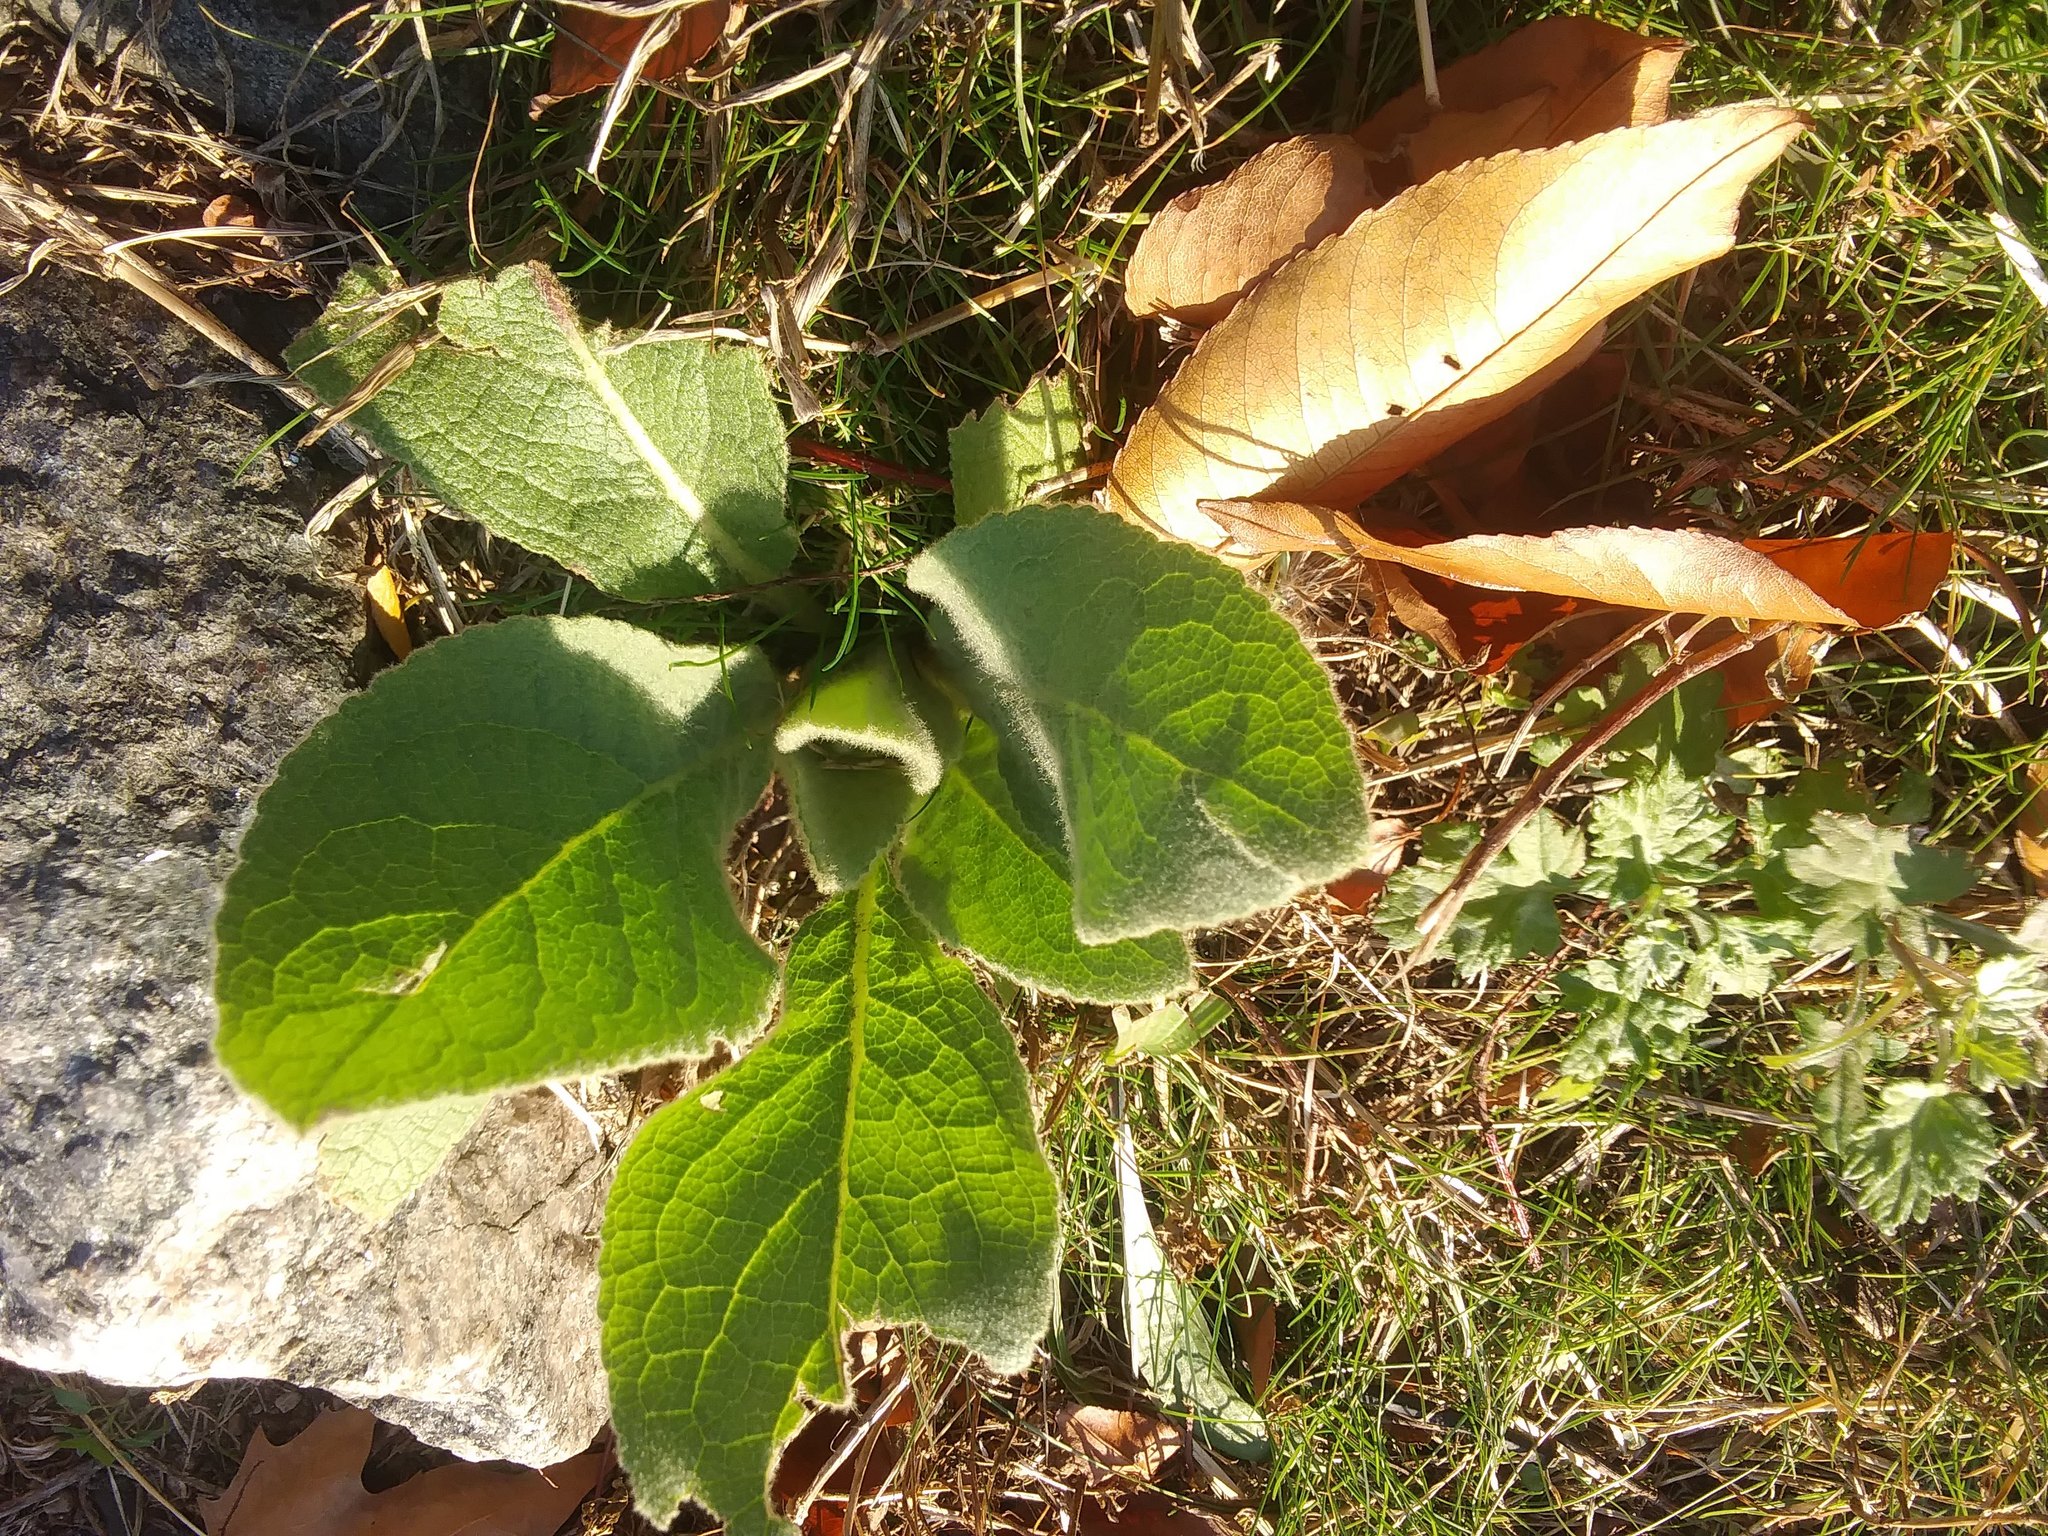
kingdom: Plantae
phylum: Tracheophyta
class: Magnoliopsida
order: Lamiales
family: Scrophulariaceae
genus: Verbascum
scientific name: Verbascum thapsus
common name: Common mullein
